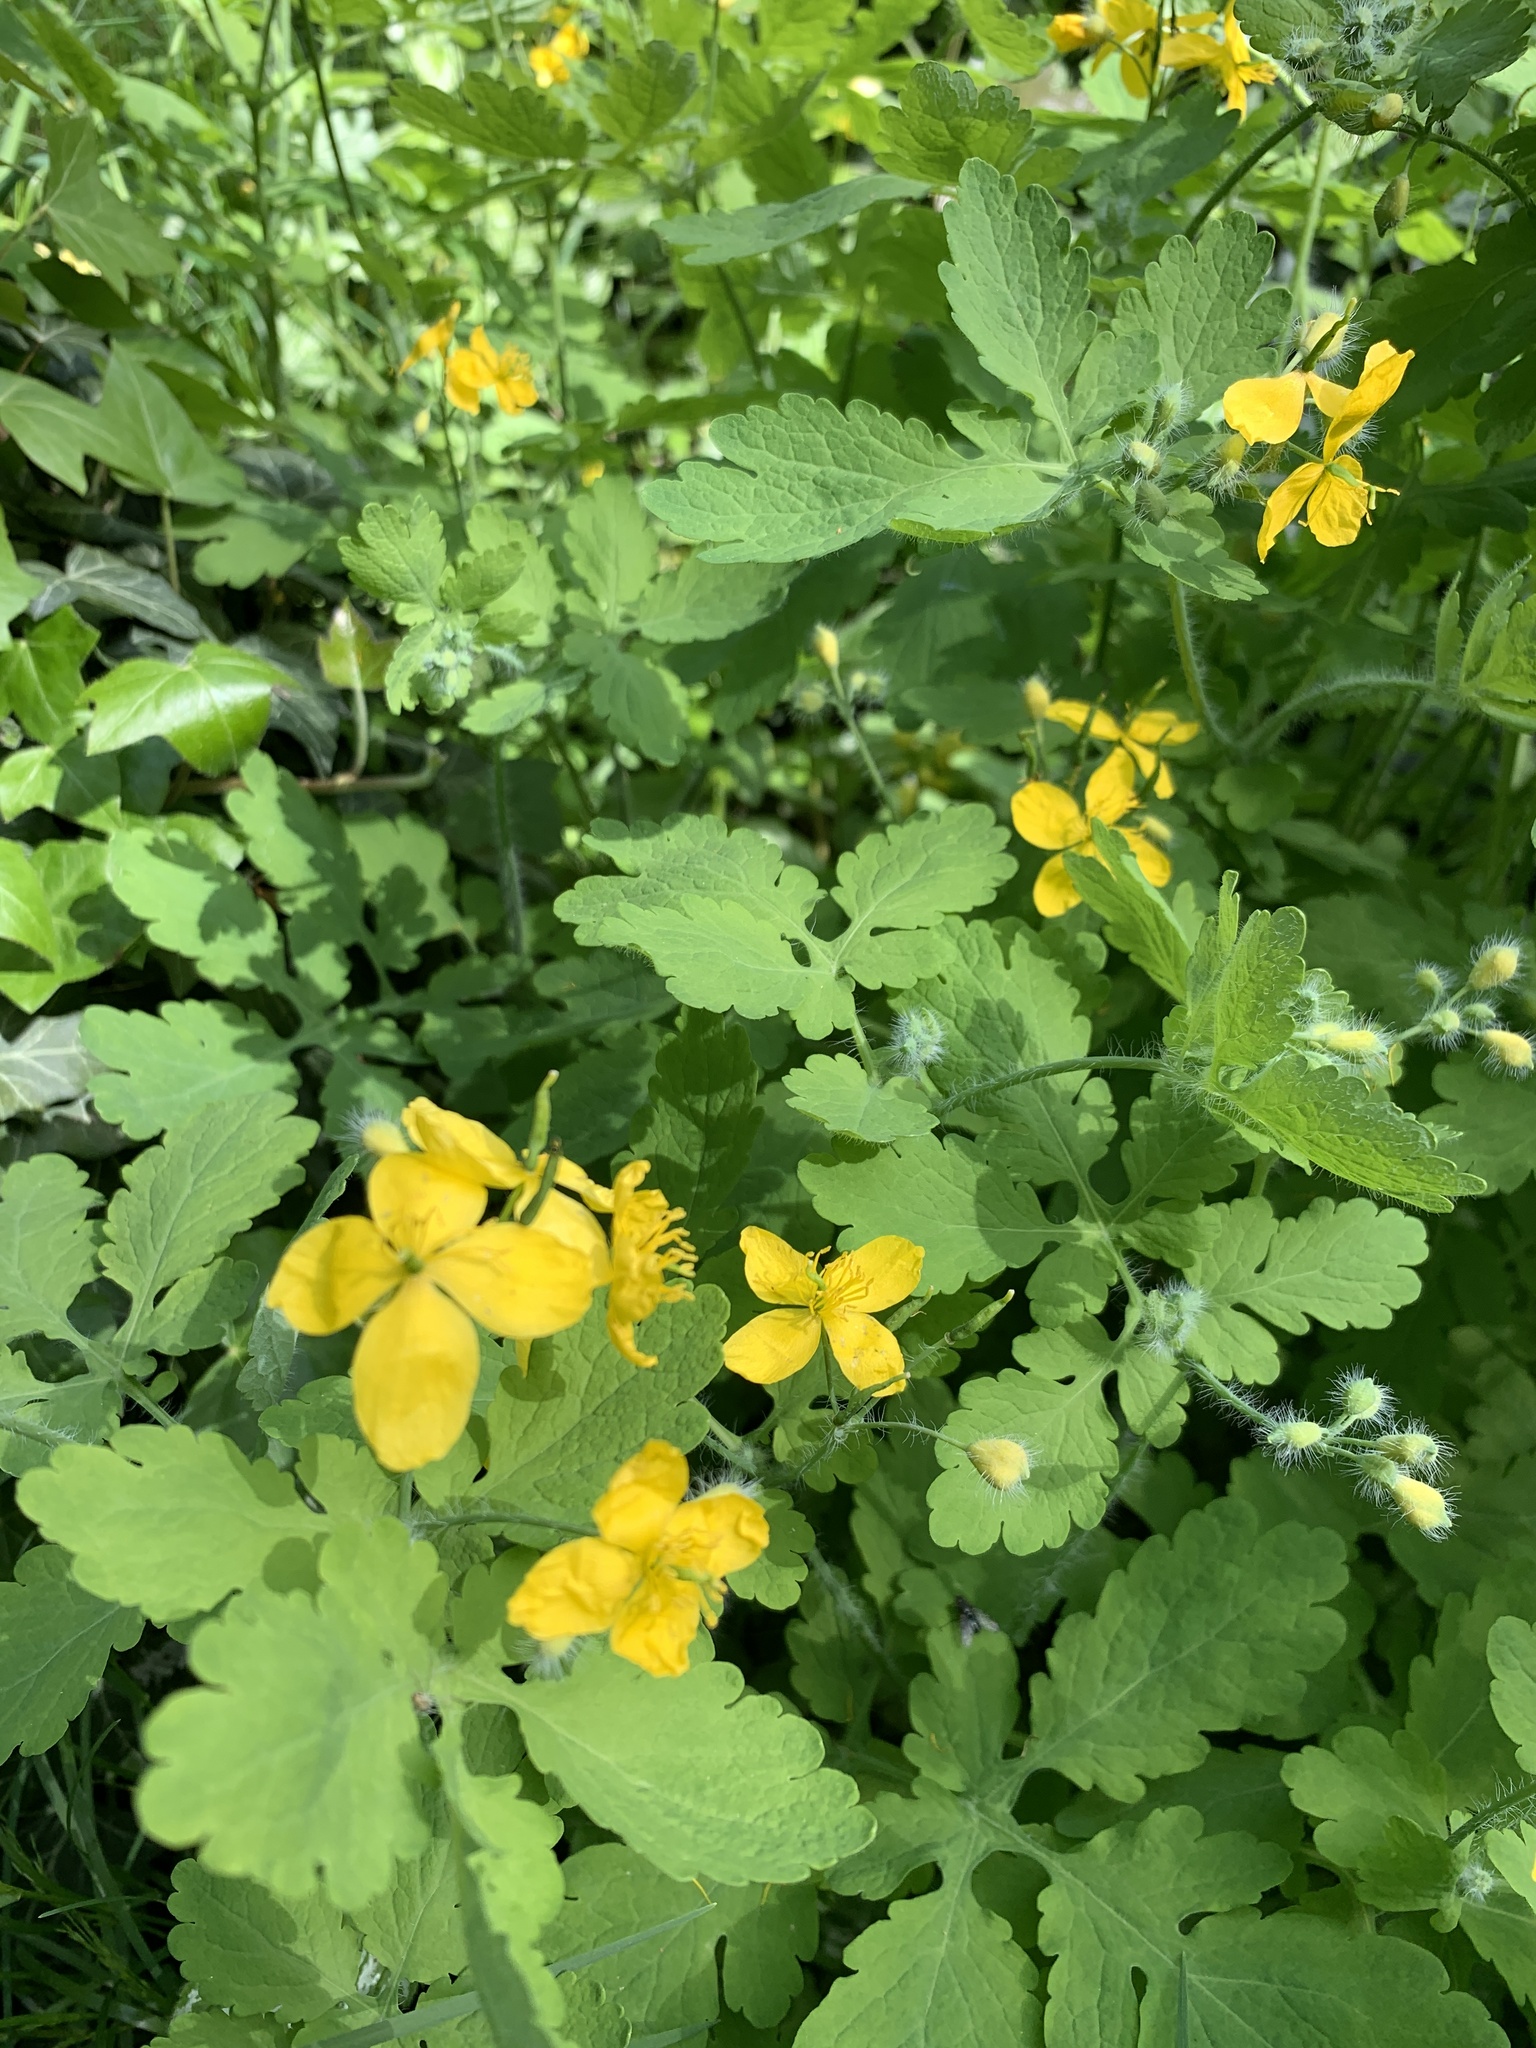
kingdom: Plantae
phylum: Tracheophyta
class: Magnoliopsida
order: Ranunculales
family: Papaveraceae
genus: Chelidonium
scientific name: Chelidonium majus
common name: Greater celandine
